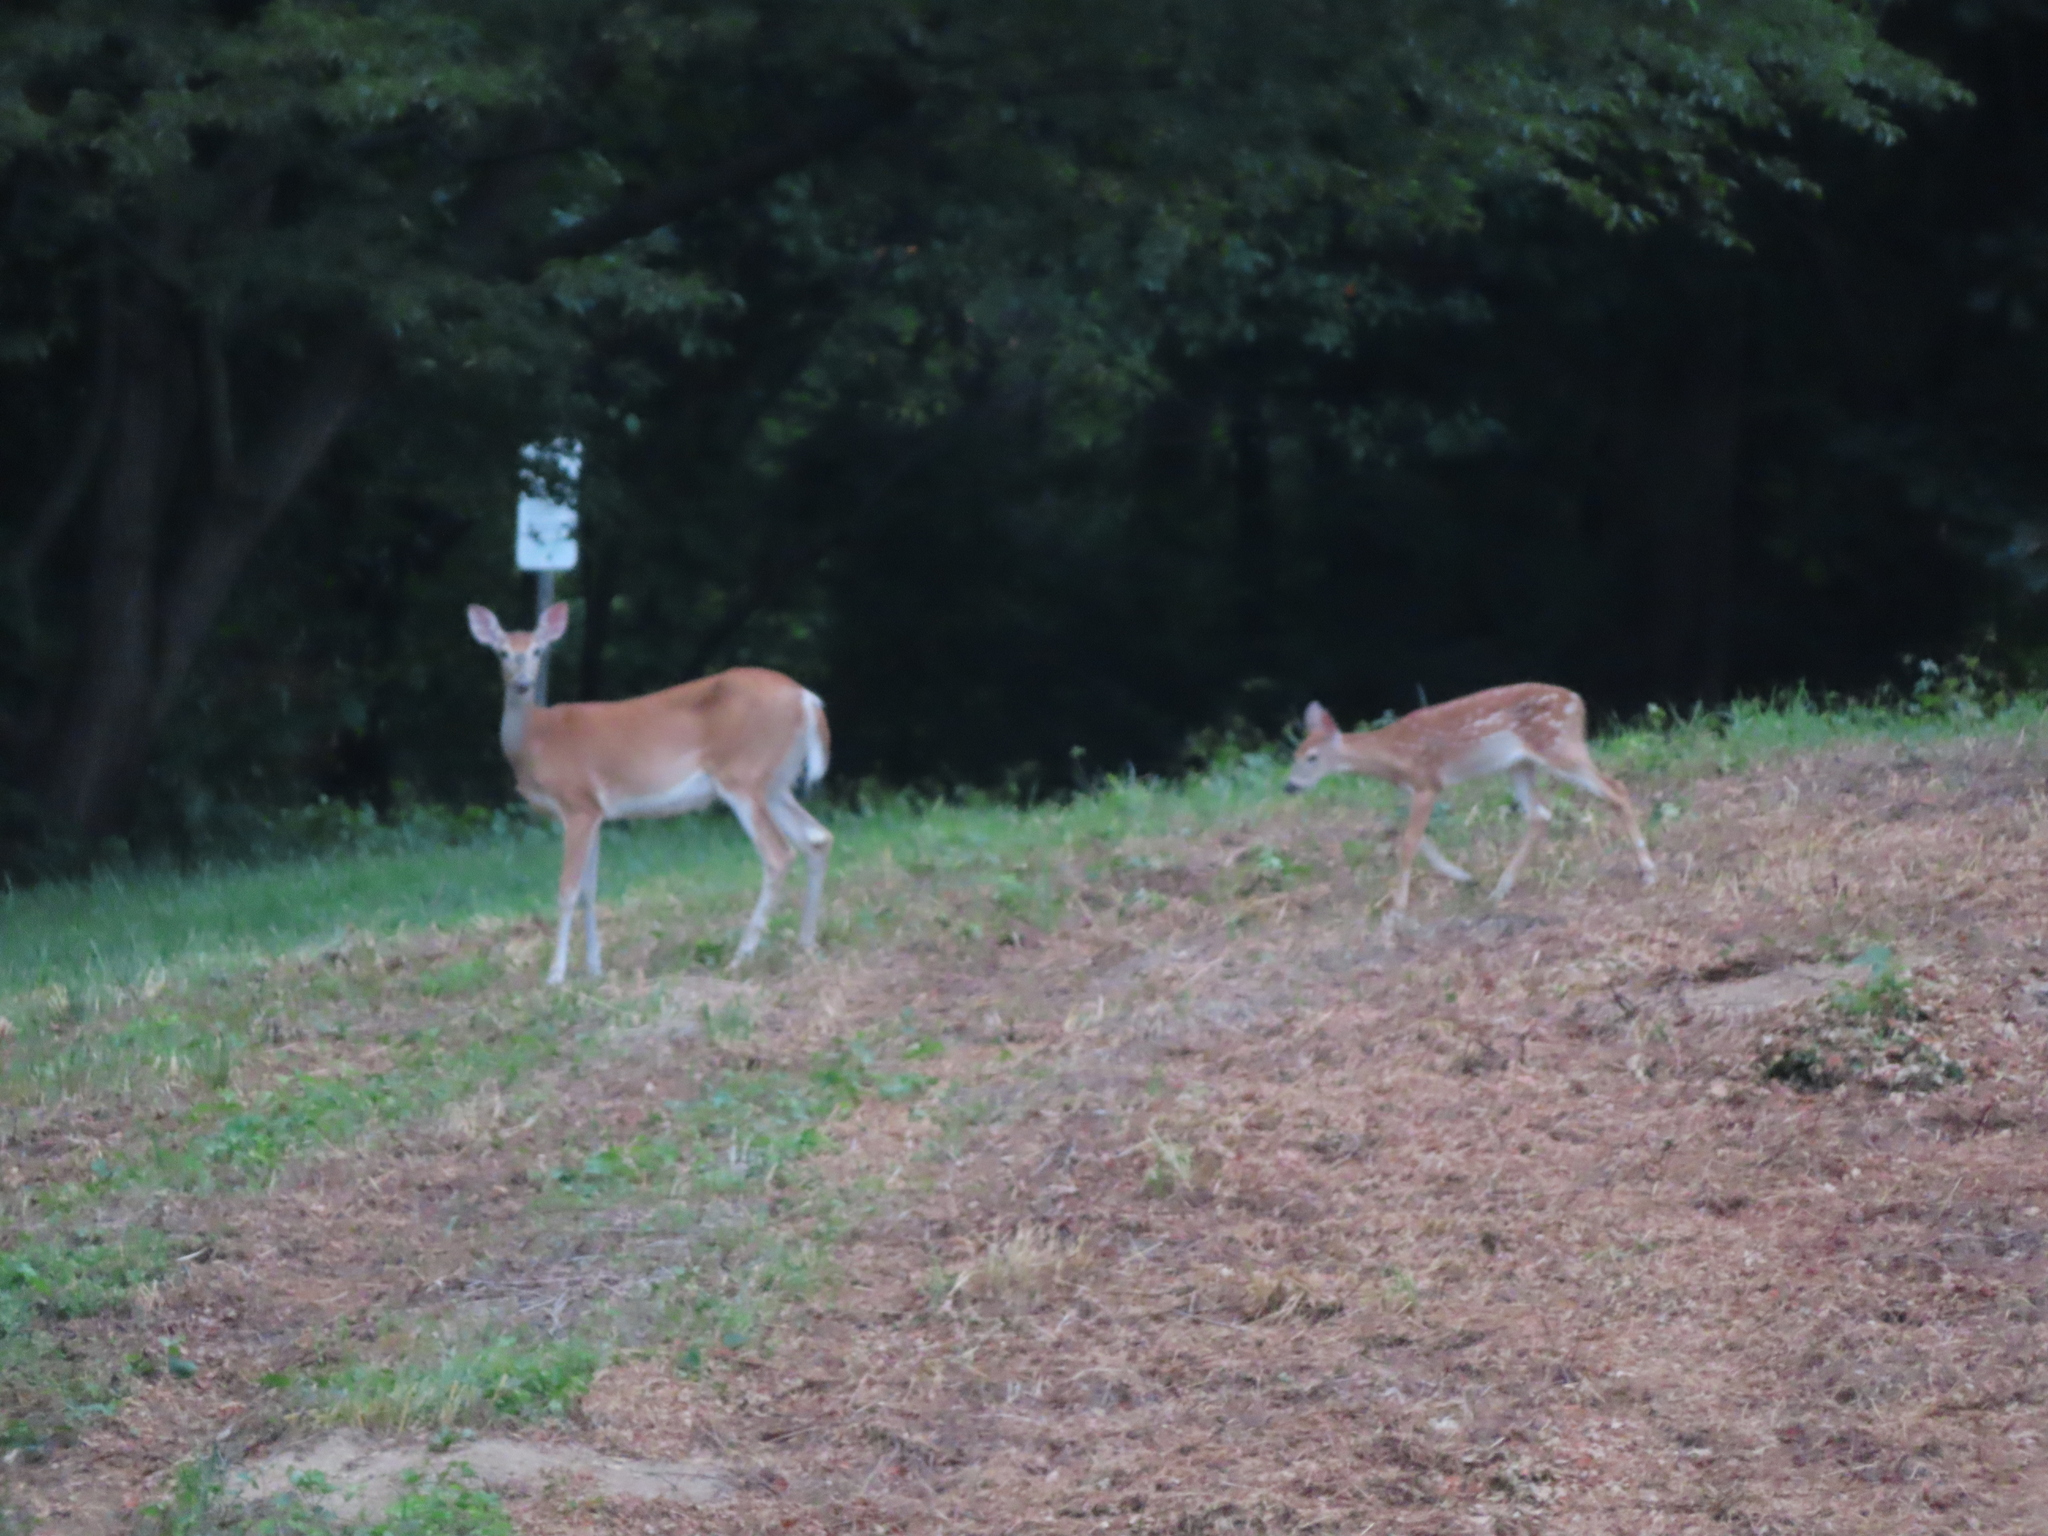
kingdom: Animalia
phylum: Chordata
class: Mammalia
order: Artiodactyla
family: Cervidae
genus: Odocoileus
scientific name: Odocoileus virginianus
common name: White-tailed deer
